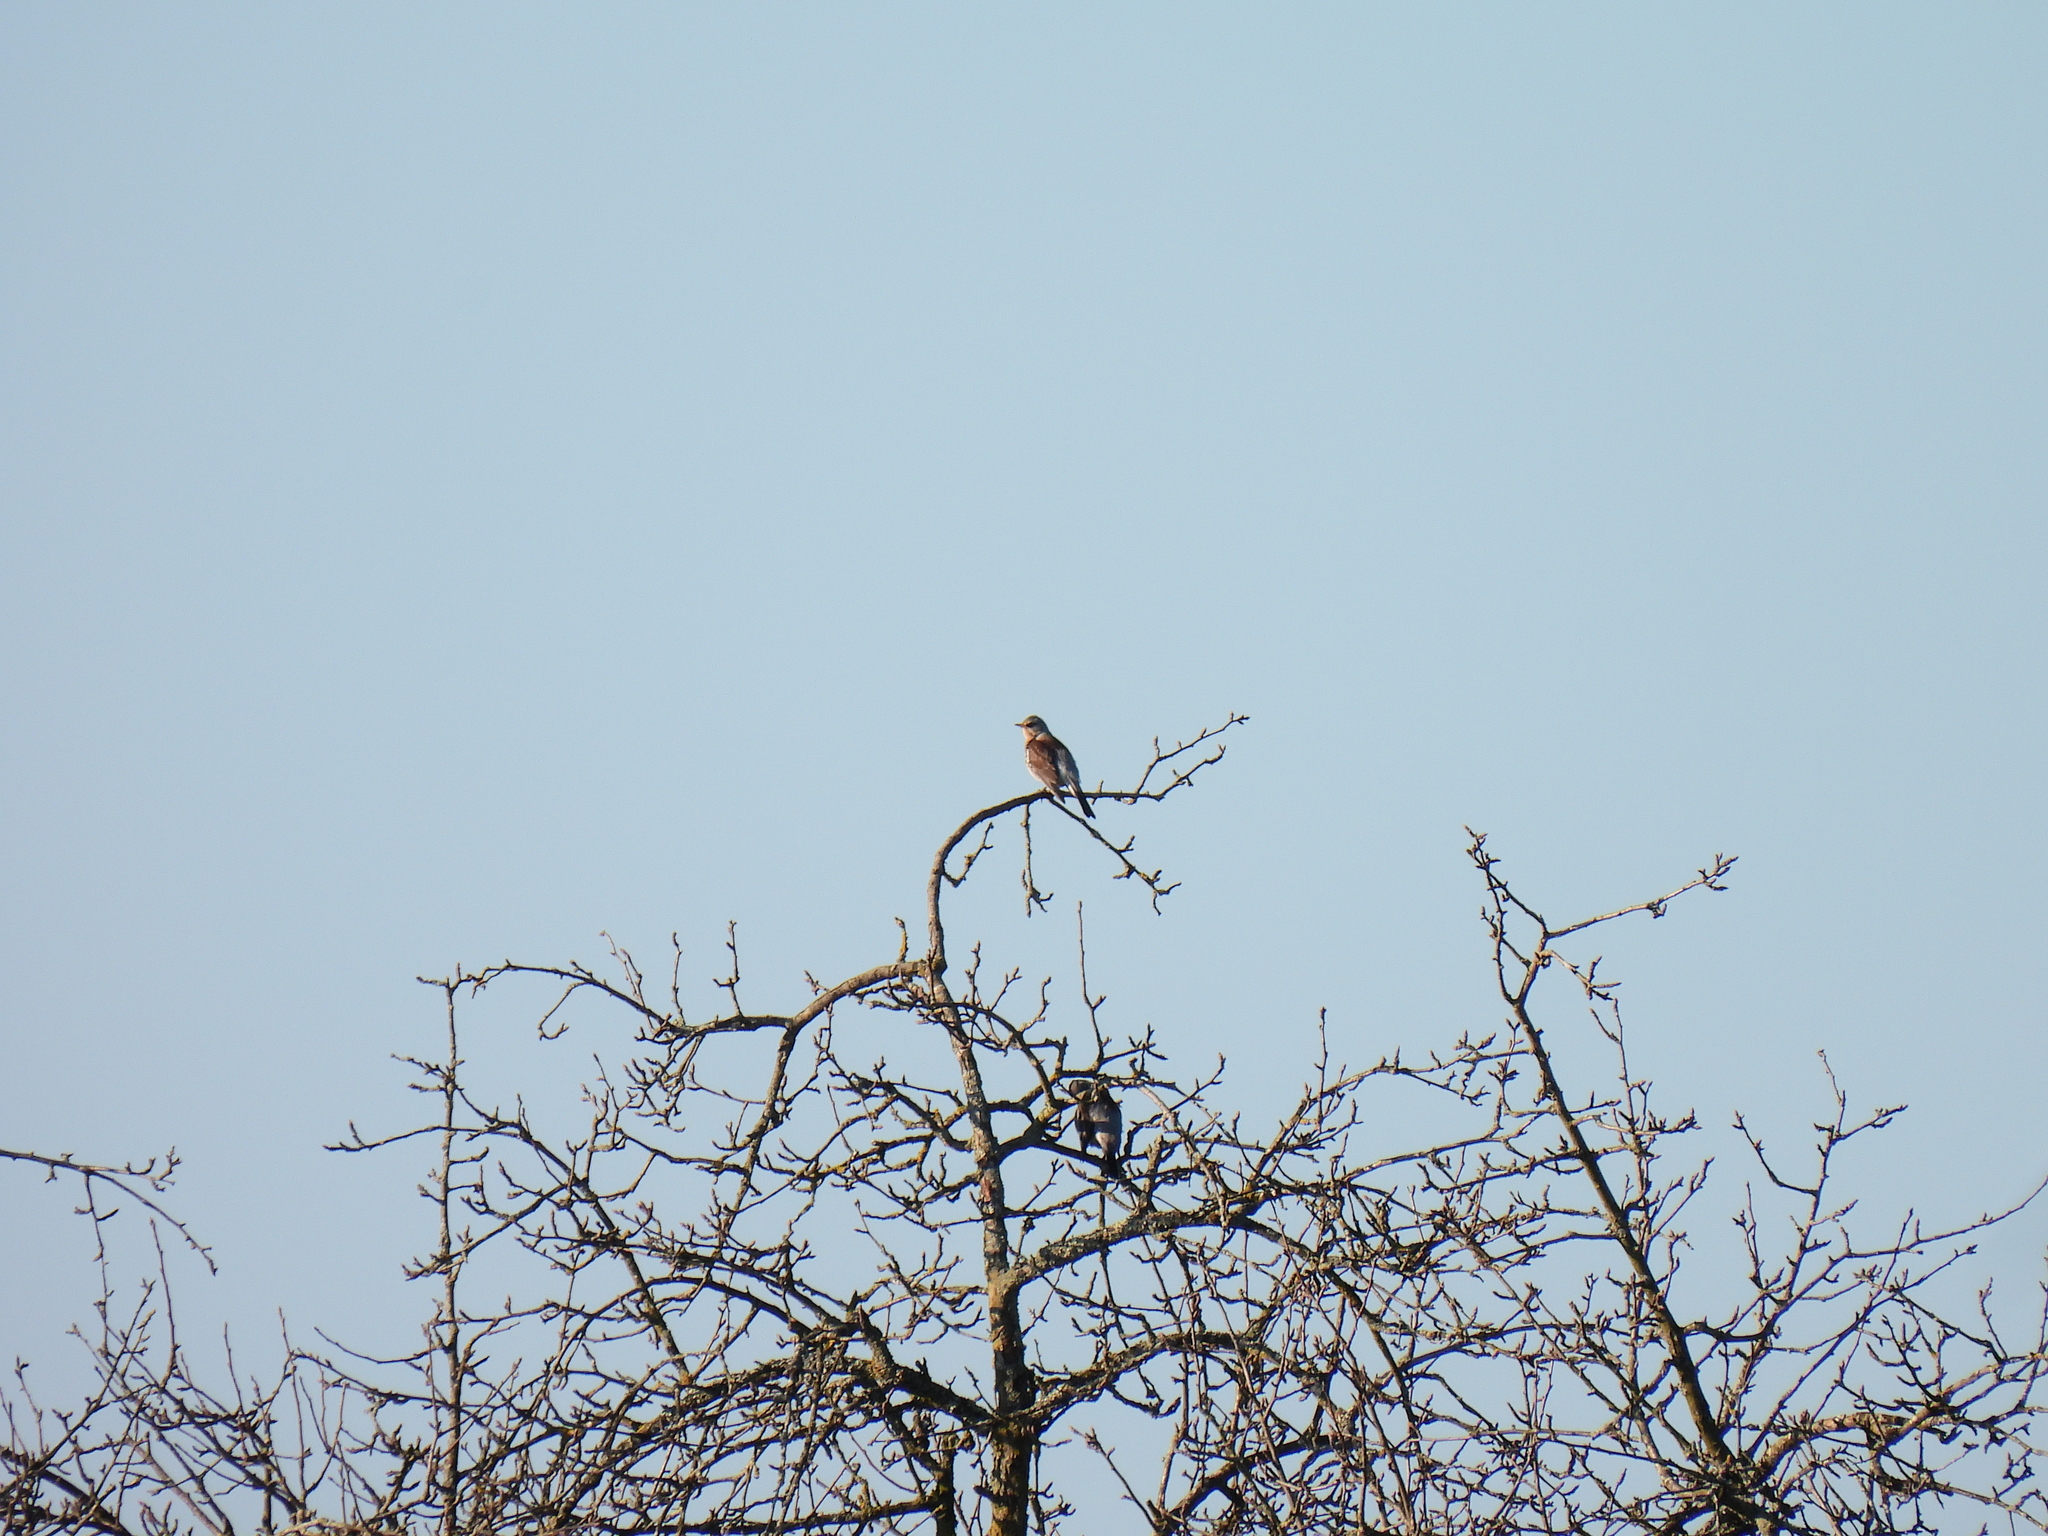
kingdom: Animalia
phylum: Chordata
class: Aves
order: Passeriformes
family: Turdidae
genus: Turdus
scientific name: Turdus pilaris
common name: Fieldfare
